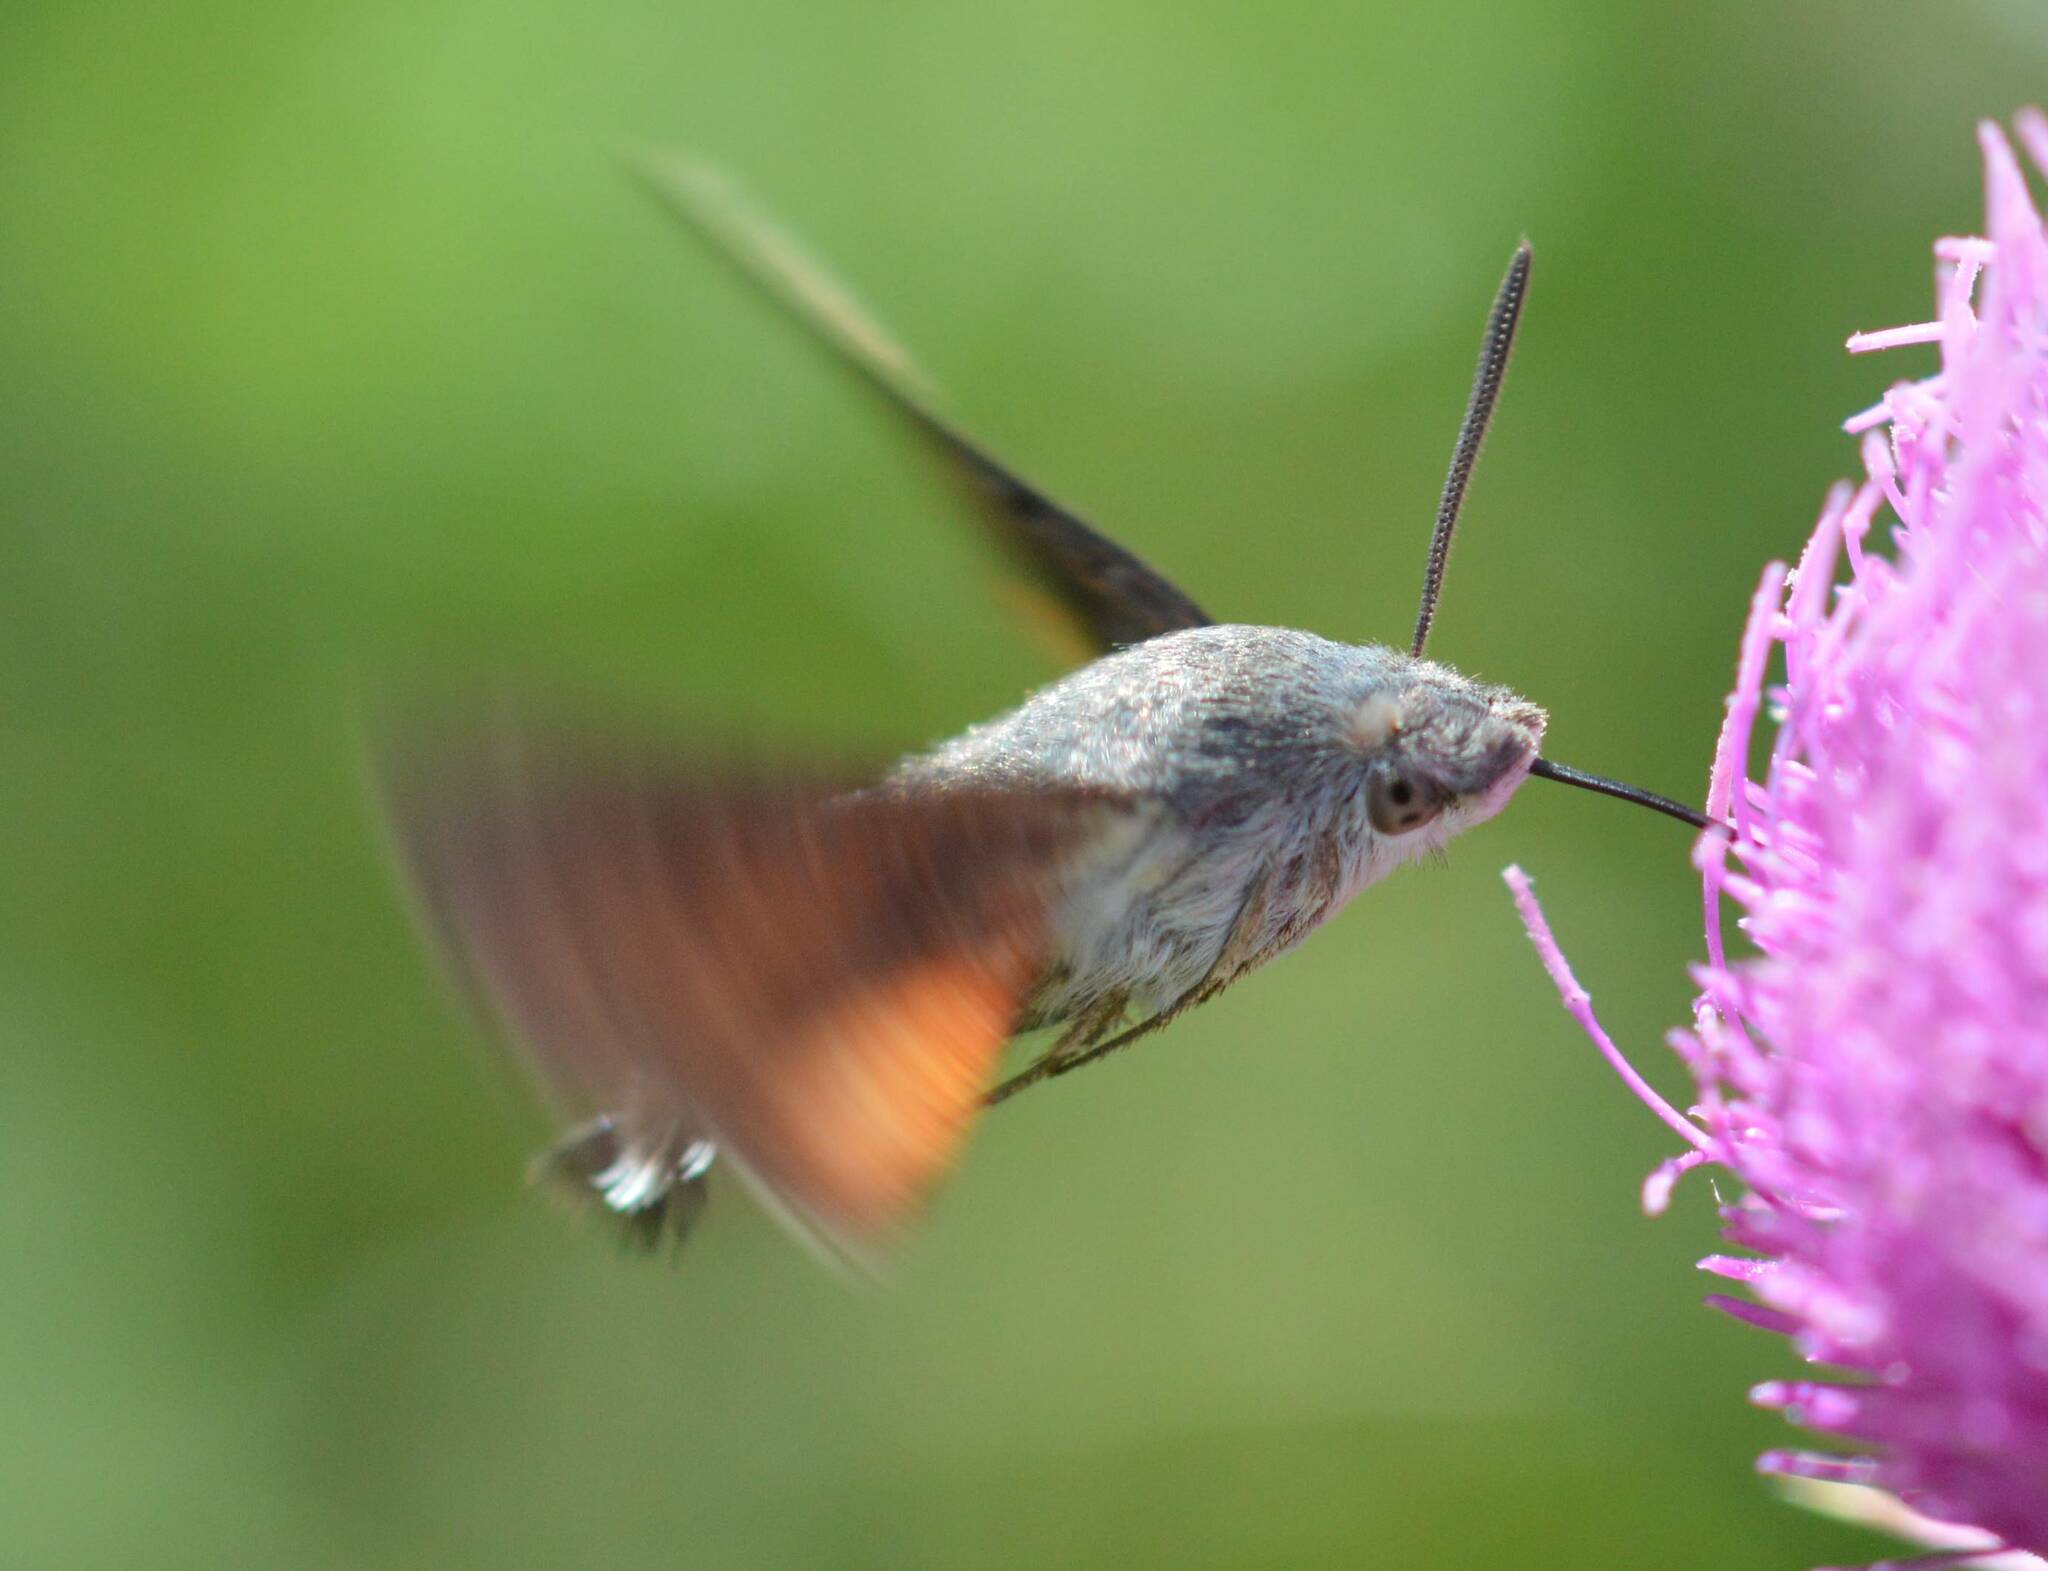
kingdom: Animalia
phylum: Arthropoda
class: Insecta
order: Lepidoptera
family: Sphingidae
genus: Macroglossum
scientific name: Macroglossum stellatarum
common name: Humming-bird hawk-moth
